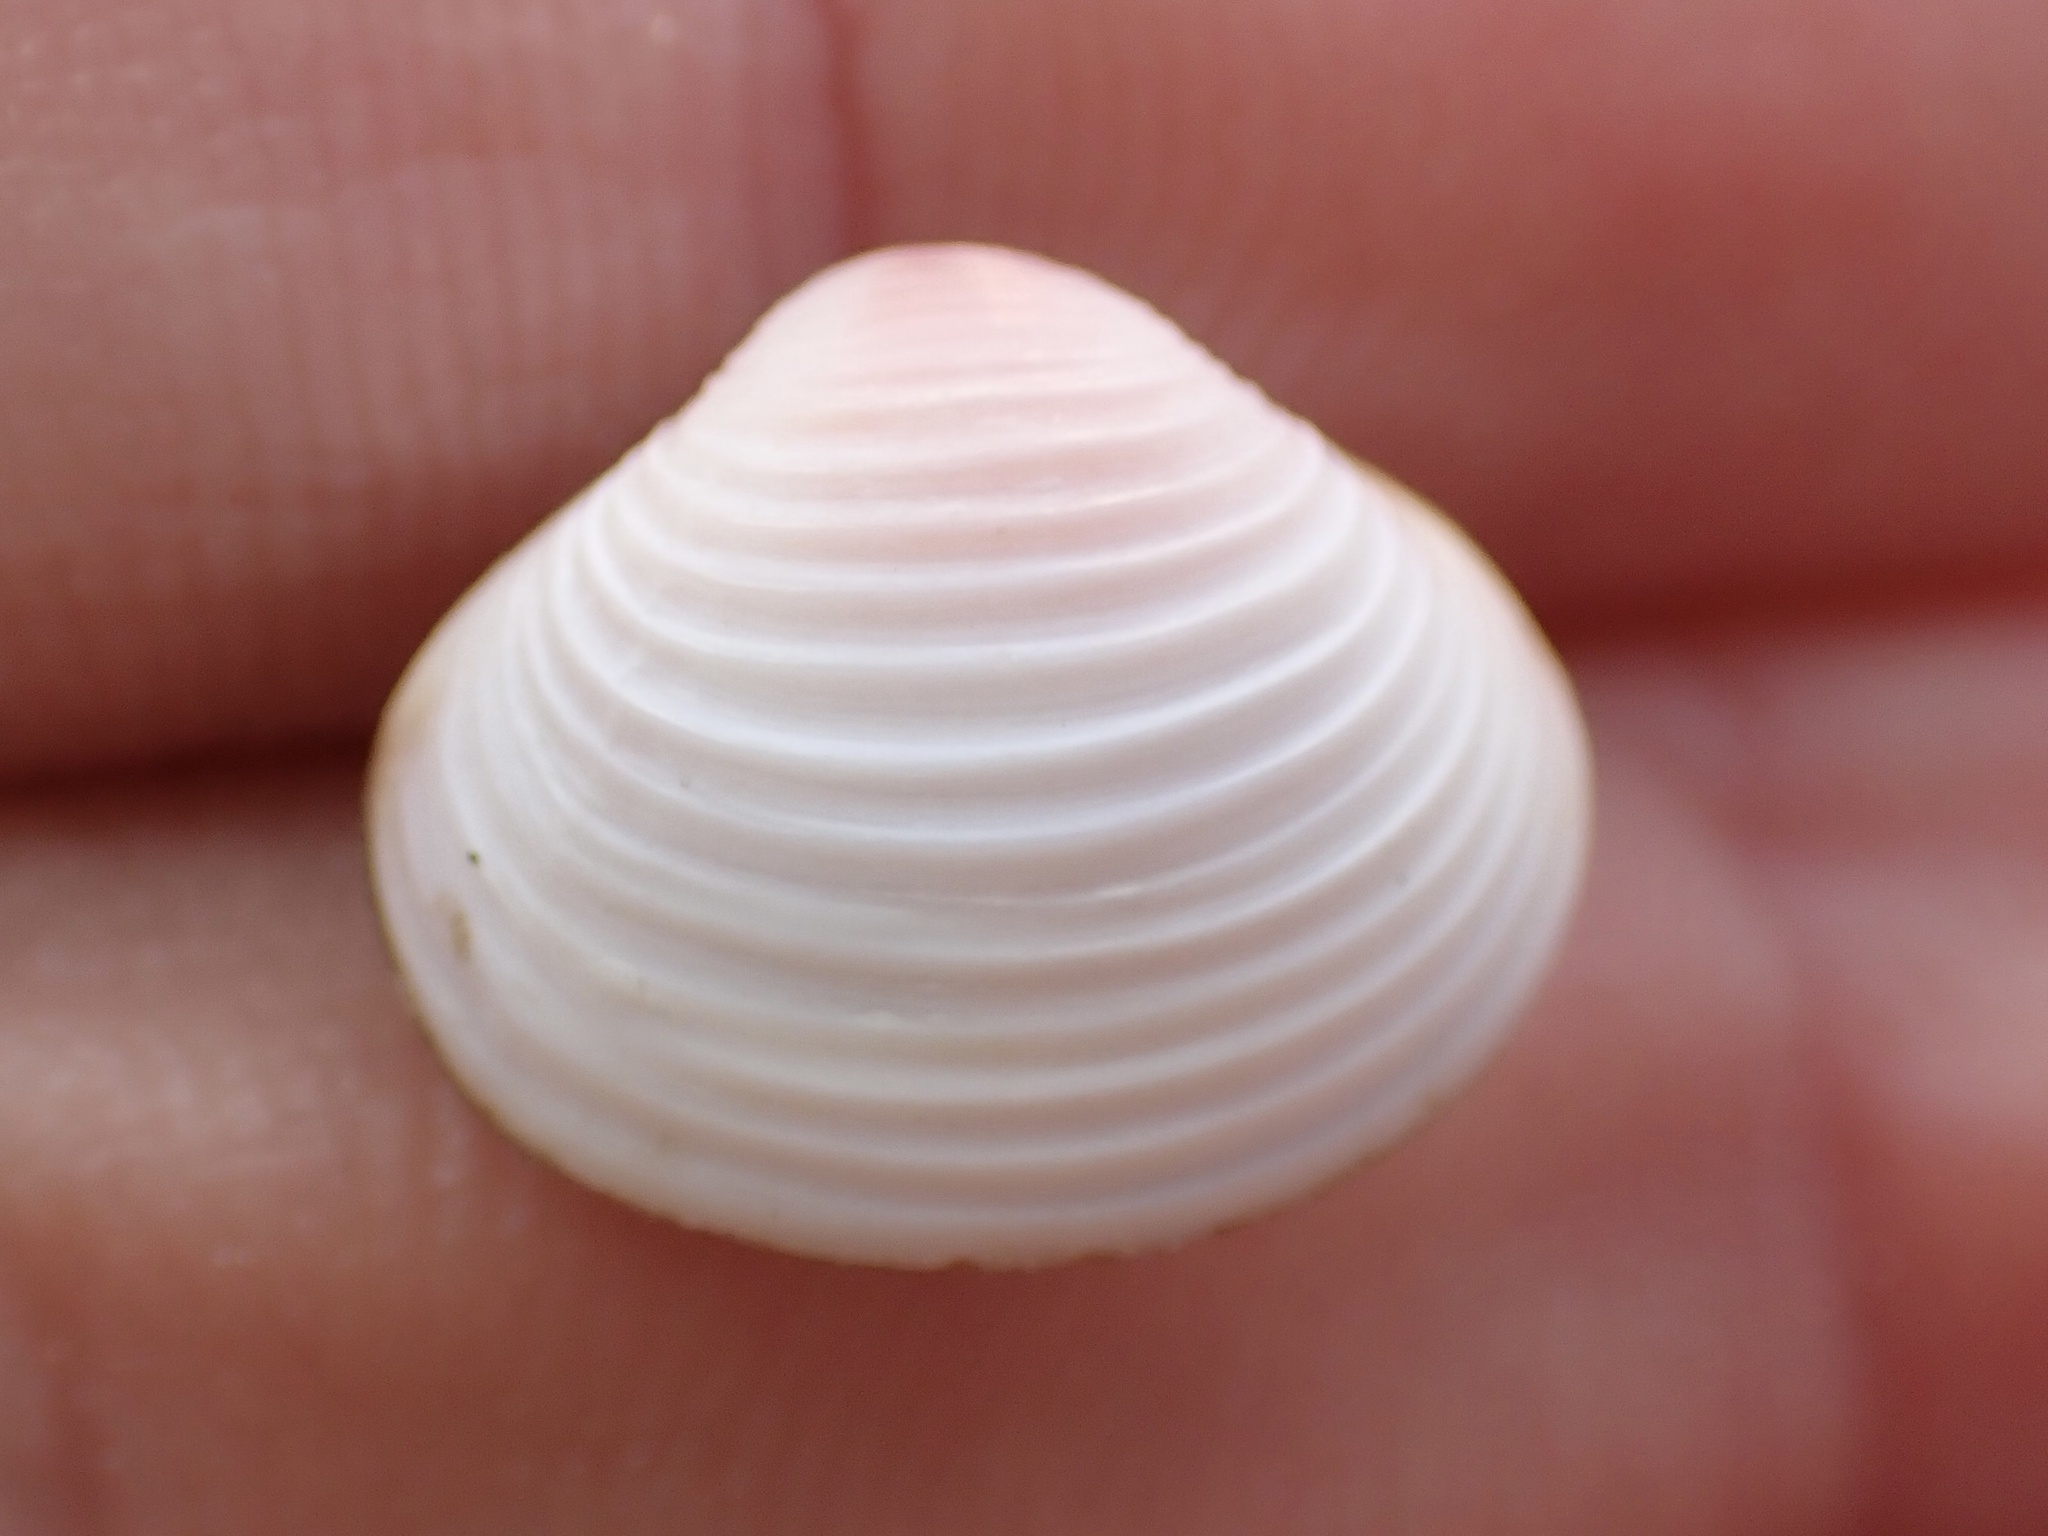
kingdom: Animalia
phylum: Mollusca
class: Bivalvia
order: Venerida
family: Cyrenidae
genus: Corbicula
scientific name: Corbicula fluminea
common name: Asian clam
